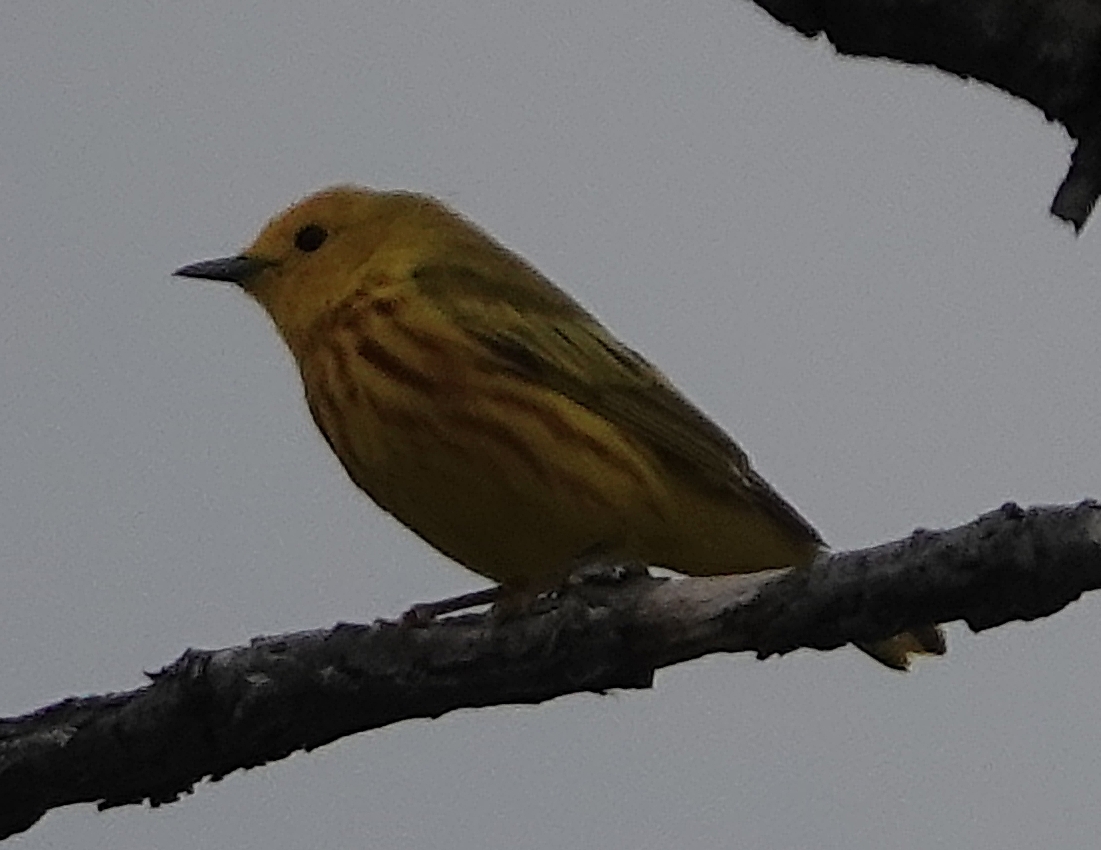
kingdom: Animalia
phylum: Chordata
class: Aves
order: Passeriformes
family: Parulidae
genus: Setophaga
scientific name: Setophaga petechia
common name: Yellow warbler
